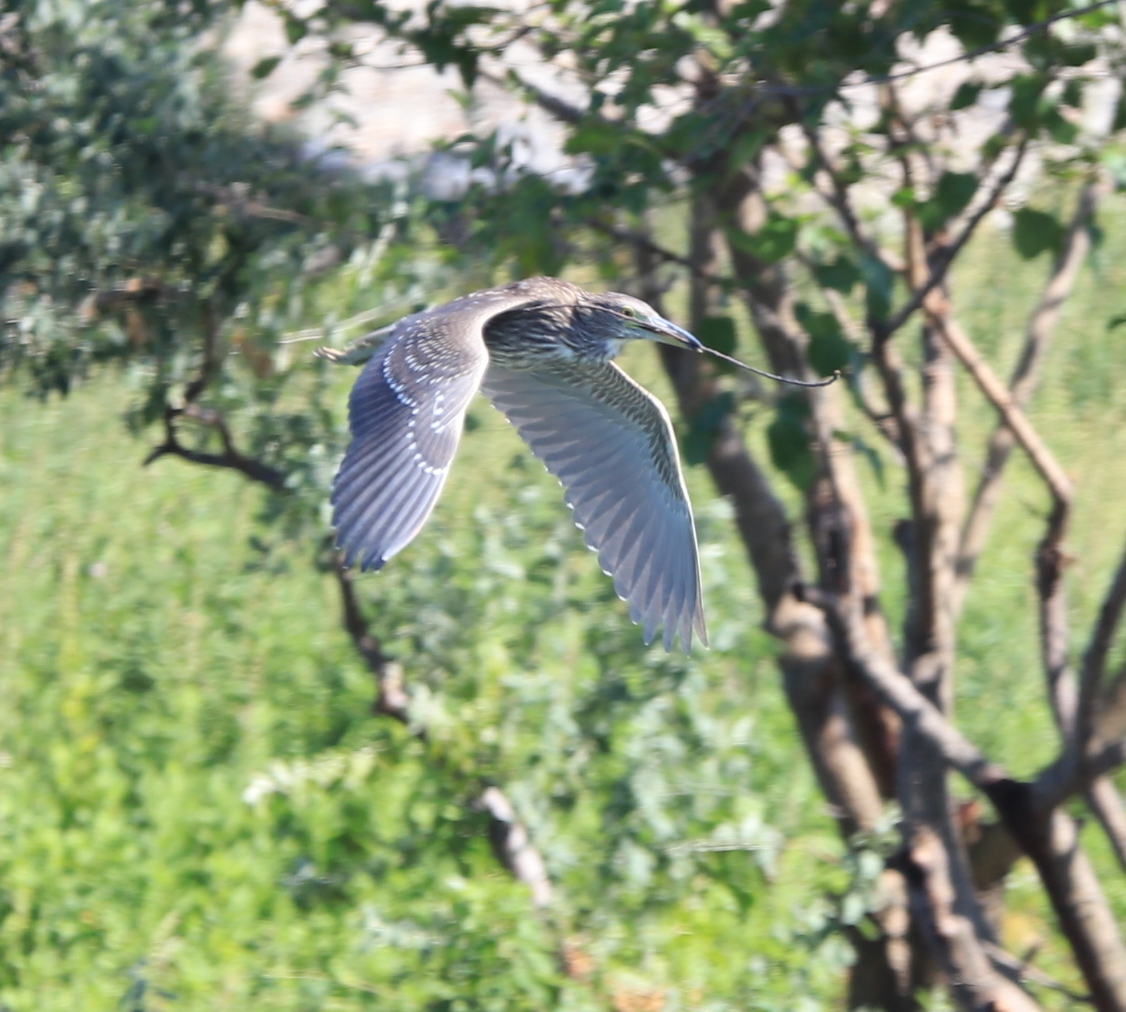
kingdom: Animalia
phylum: Chordata
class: Aves
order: Pelecaniformes
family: Ardeidae
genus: Nycticorax
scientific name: Nycticorax nycticorax
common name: Black-crowned night heron
